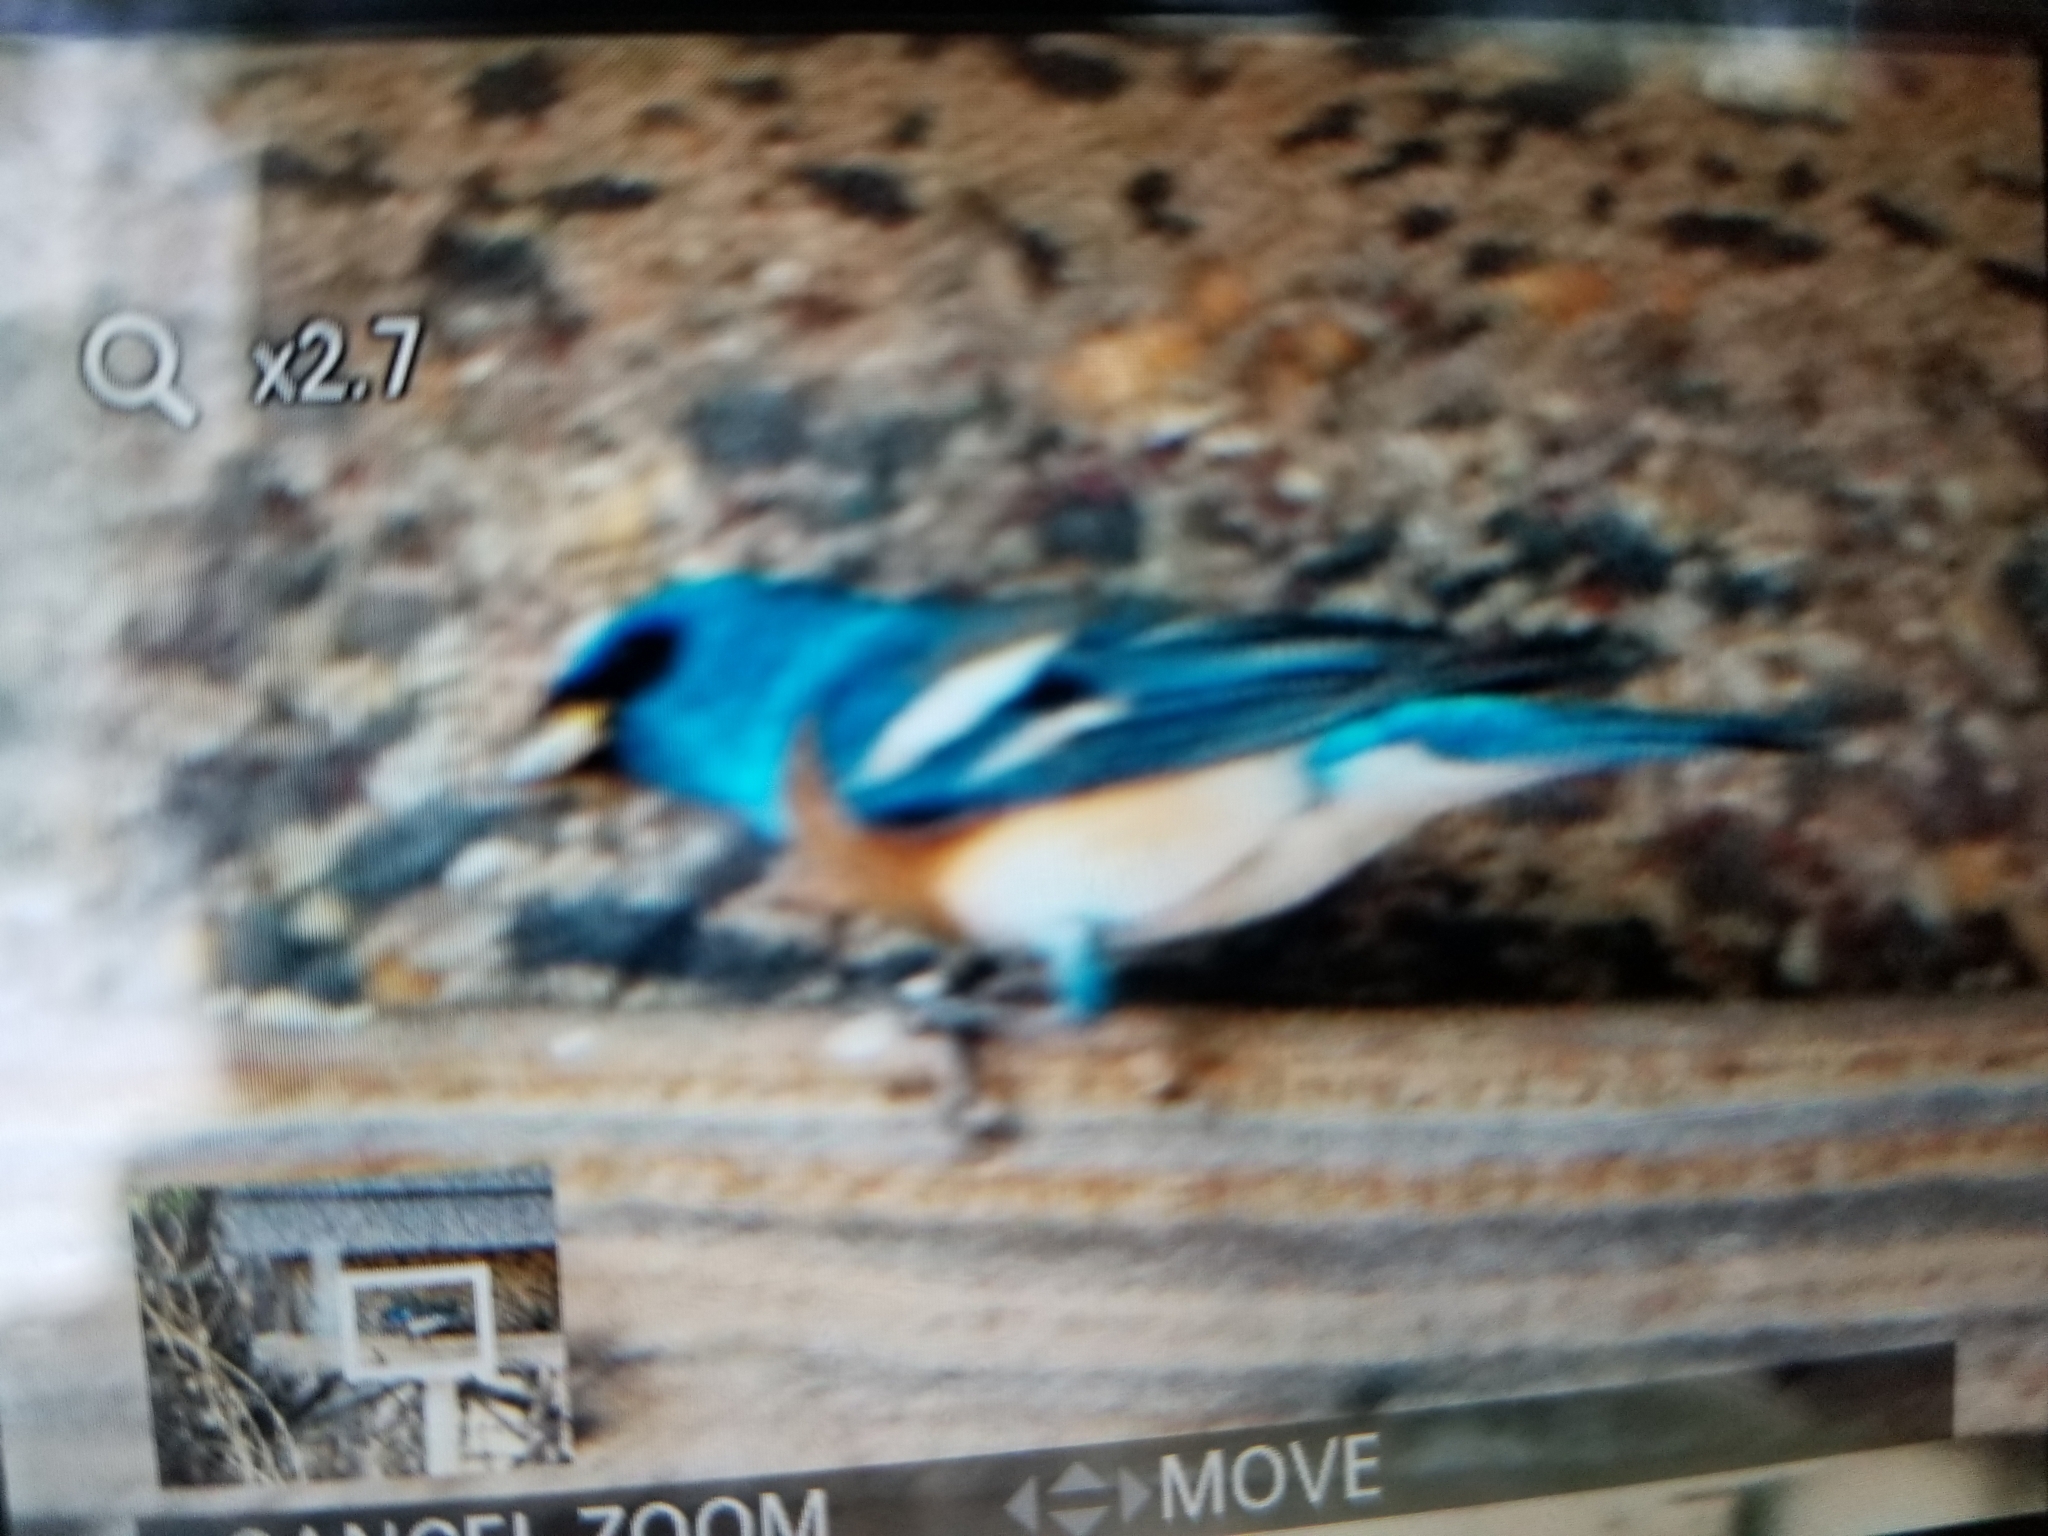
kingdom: Animalia
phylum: Chordata
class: Aves
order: Passeriformes
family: Cardinalidae
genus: Passerina
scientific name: Passerina amoena
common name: Lazuli bunting
